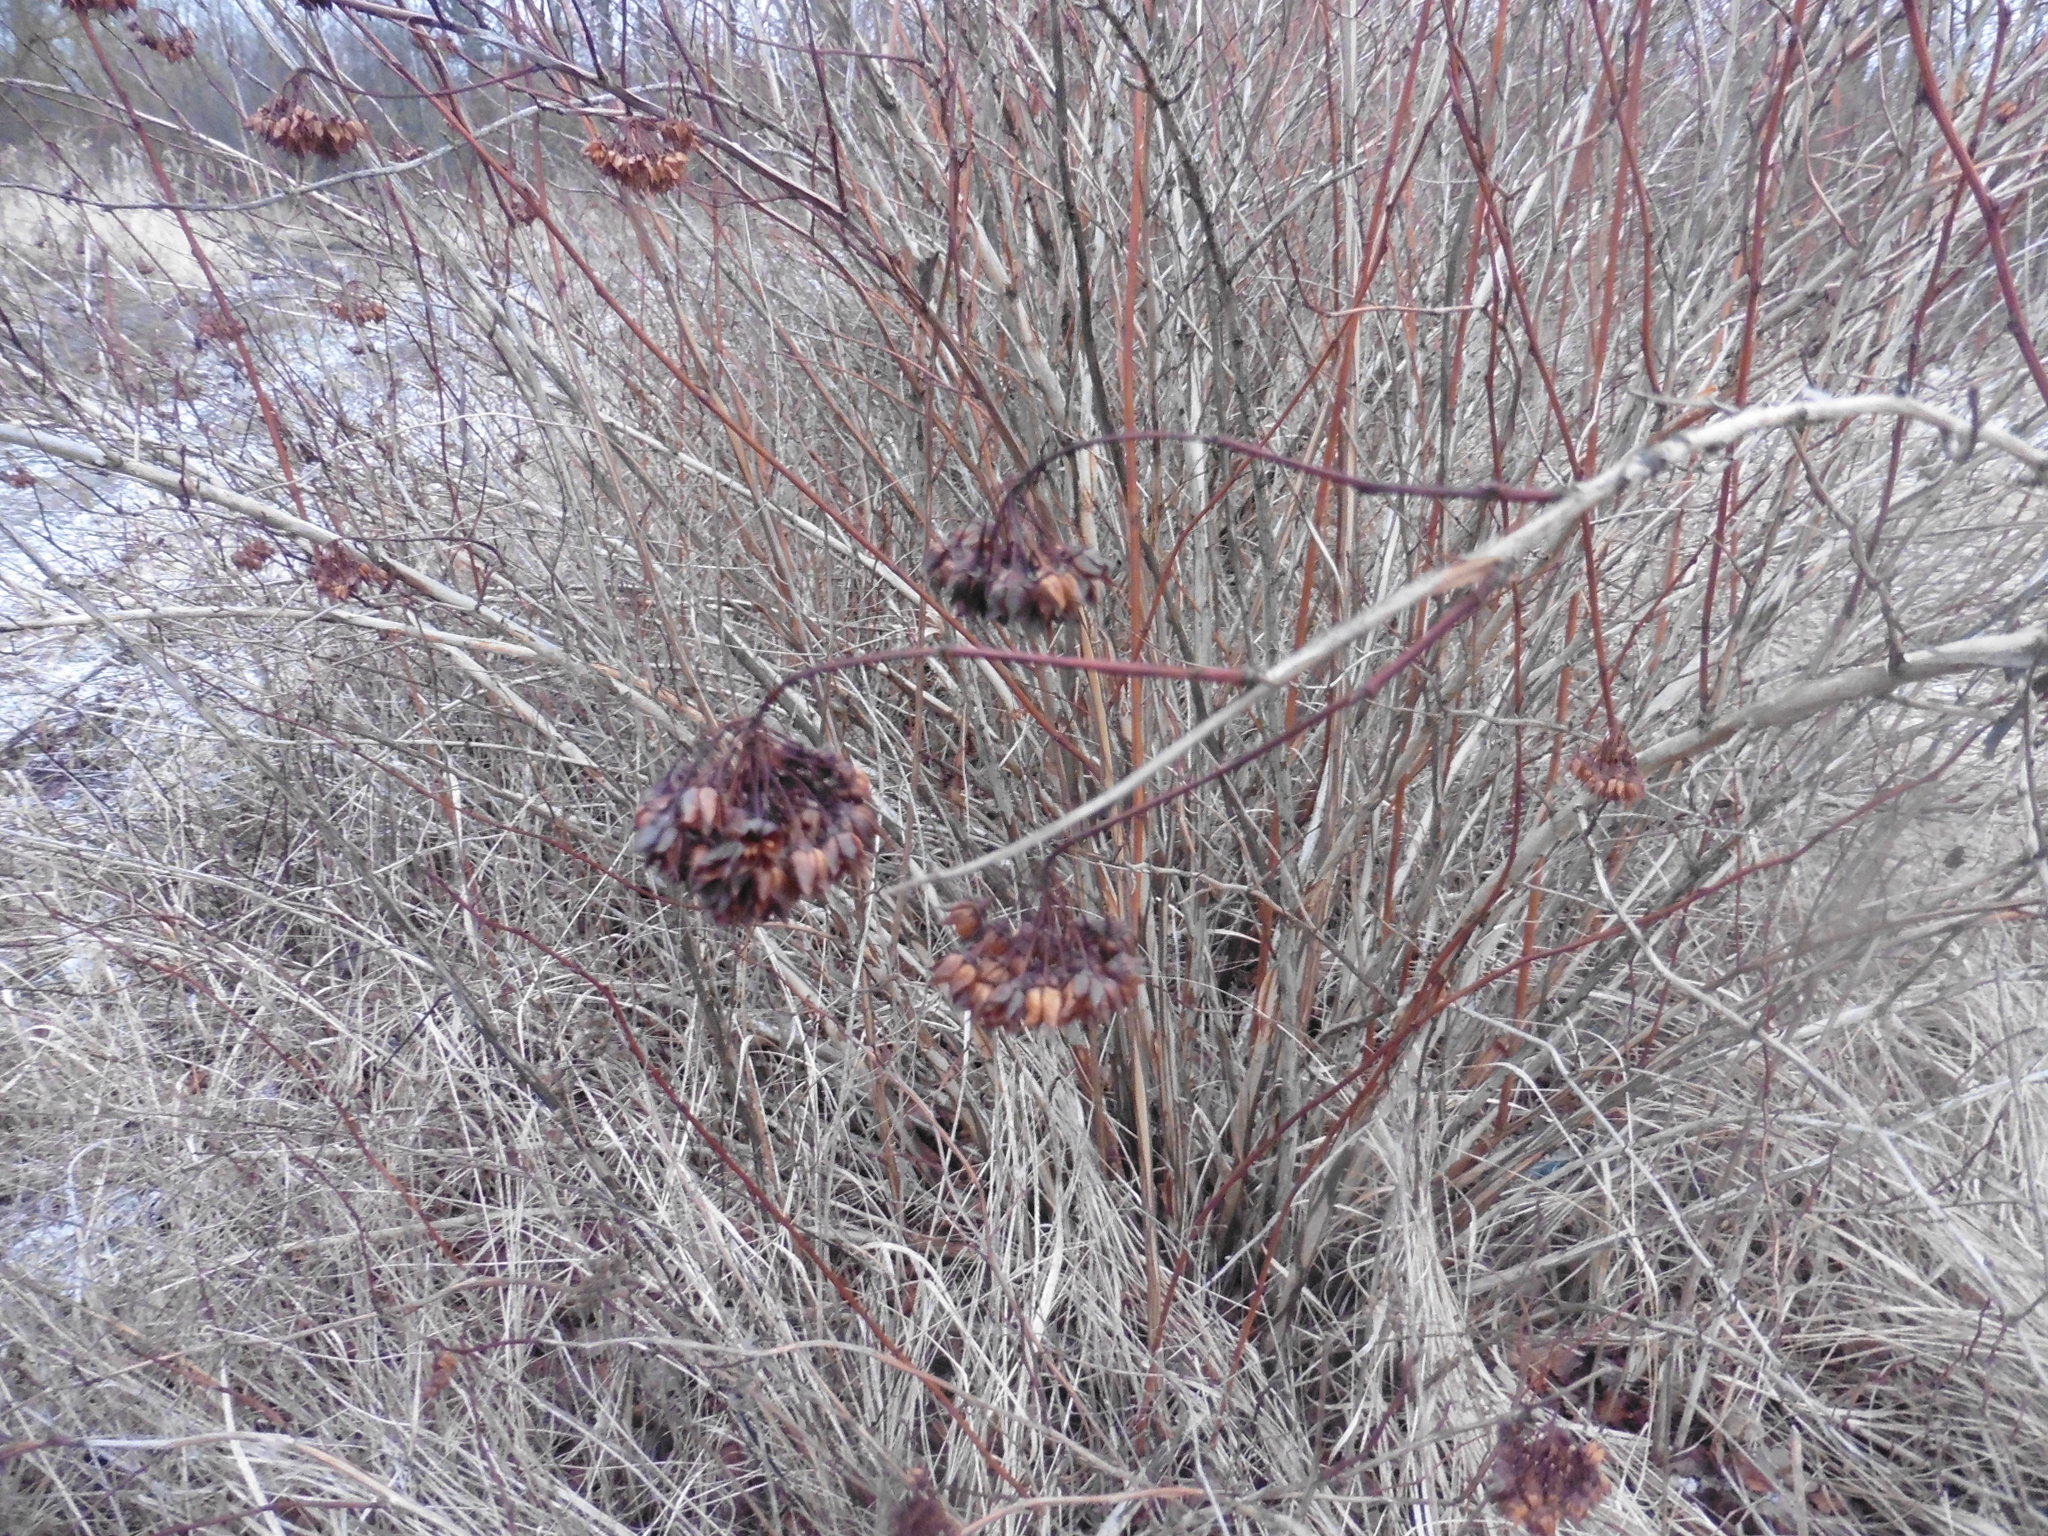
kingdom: Plantae
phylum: Tracheophyta
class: Magnoliopsida
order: Rosales
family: Rosaceae
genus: Physocarpus
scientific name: Physocarpus opulifolius
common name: Ninebark
